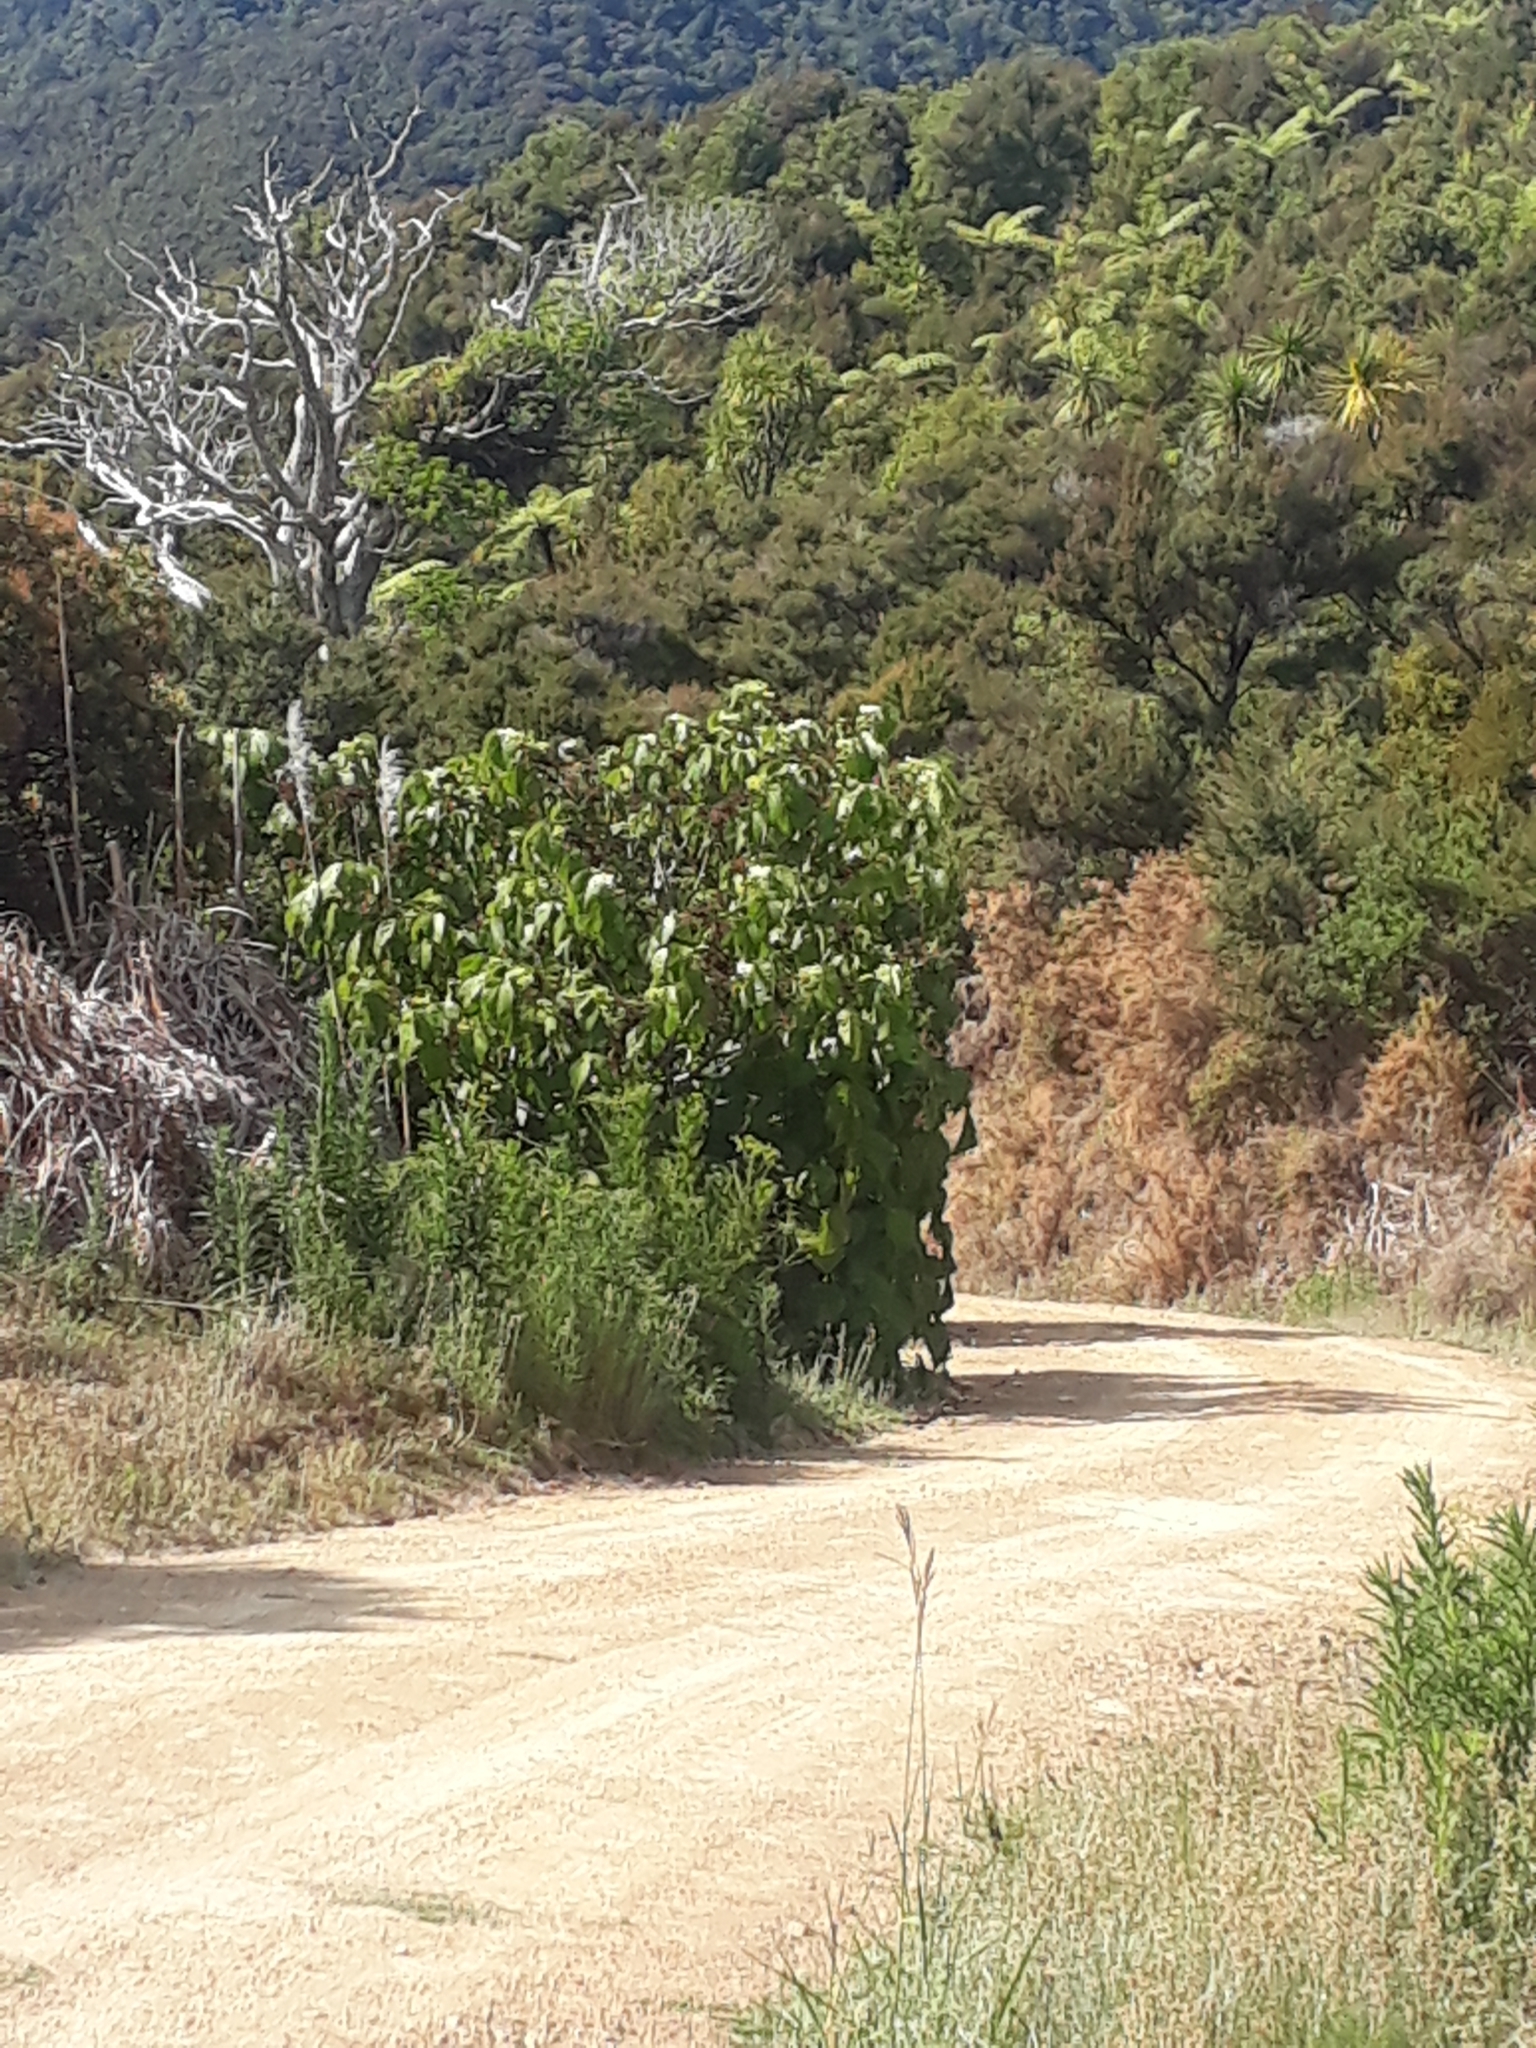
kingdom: Plantae
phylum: Tracheophyta
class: Magnoliopsida
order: Malvales
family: Malvaceae
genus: Entelea
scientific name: Entelea arborescens
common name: New zealand-mulberry
